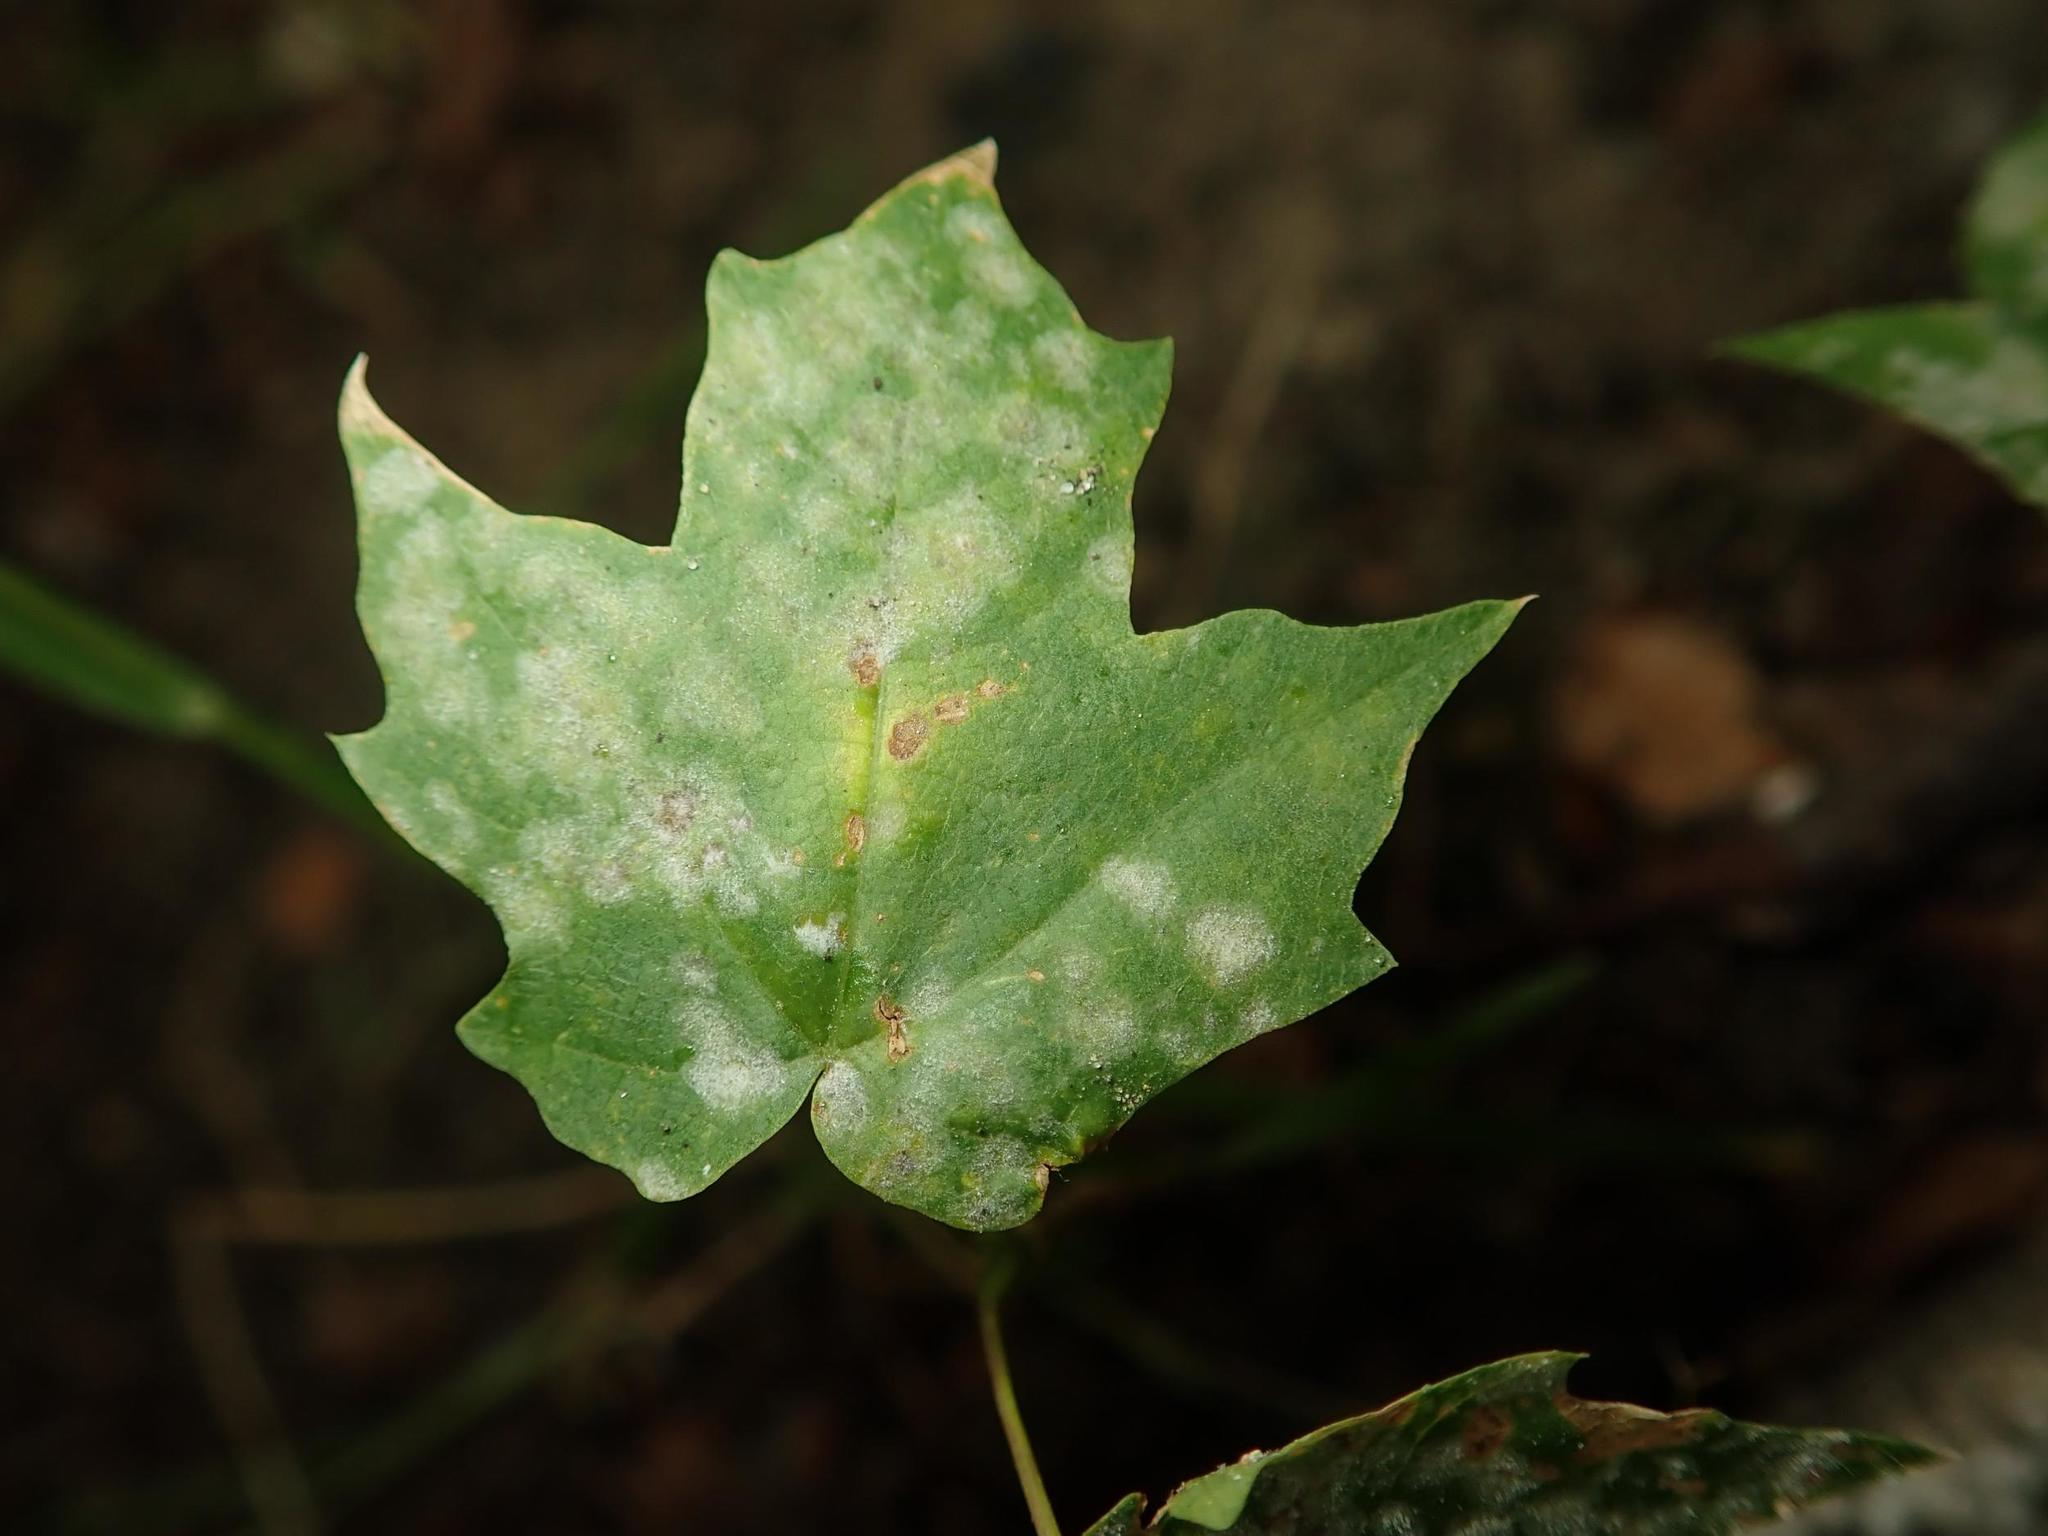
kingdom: Plantae
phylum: Tracheophyta
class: Magnoliopsida
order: Sapindales
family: Sapindaceae
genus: Acer
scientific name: Acer platanoides
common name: Norway maple
